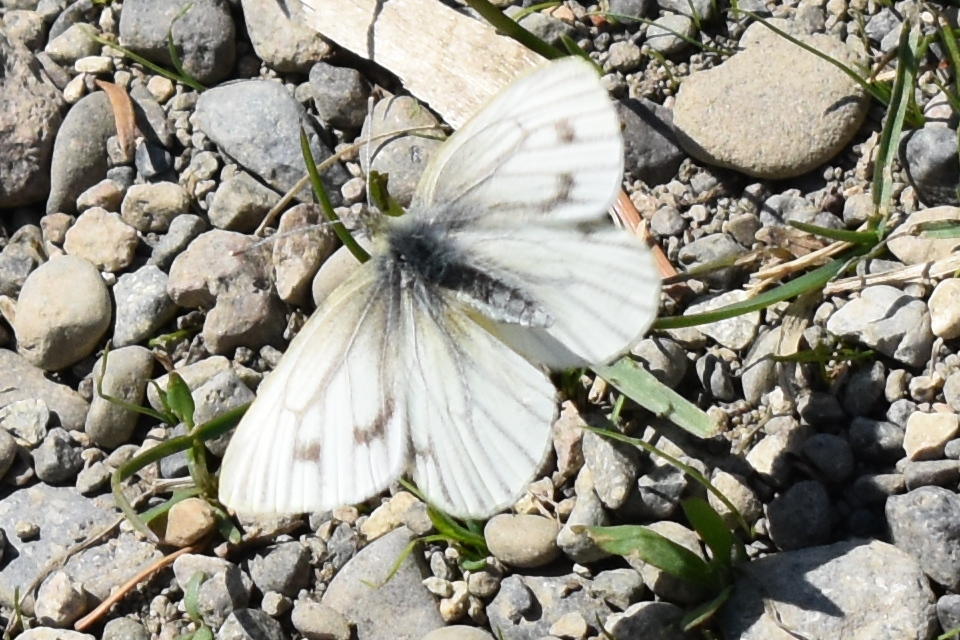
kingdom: Animalia
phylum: Arthropoda
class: Insecta
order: Lepidoptera
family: Pieridae
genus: Pieris
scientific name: Pieris napi
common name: Green-veined white
